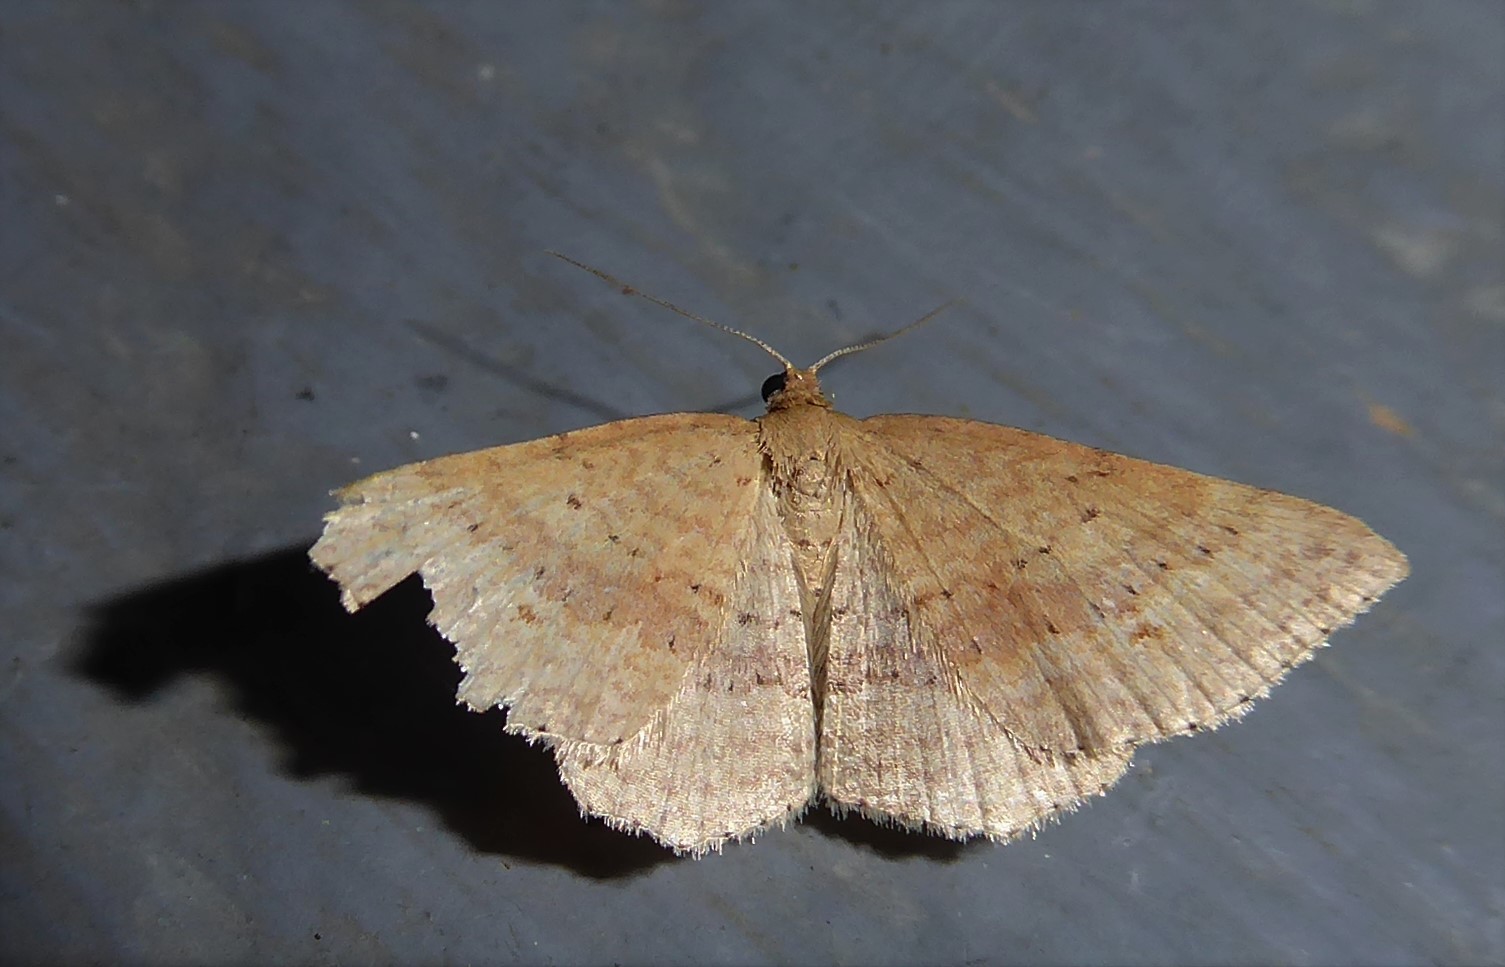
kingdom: Animalia
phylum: Arthropoda
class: Insecta
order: Lepidoptera
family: Geometridae
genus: Epicyme
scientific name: Epicyme rubropunctaria
